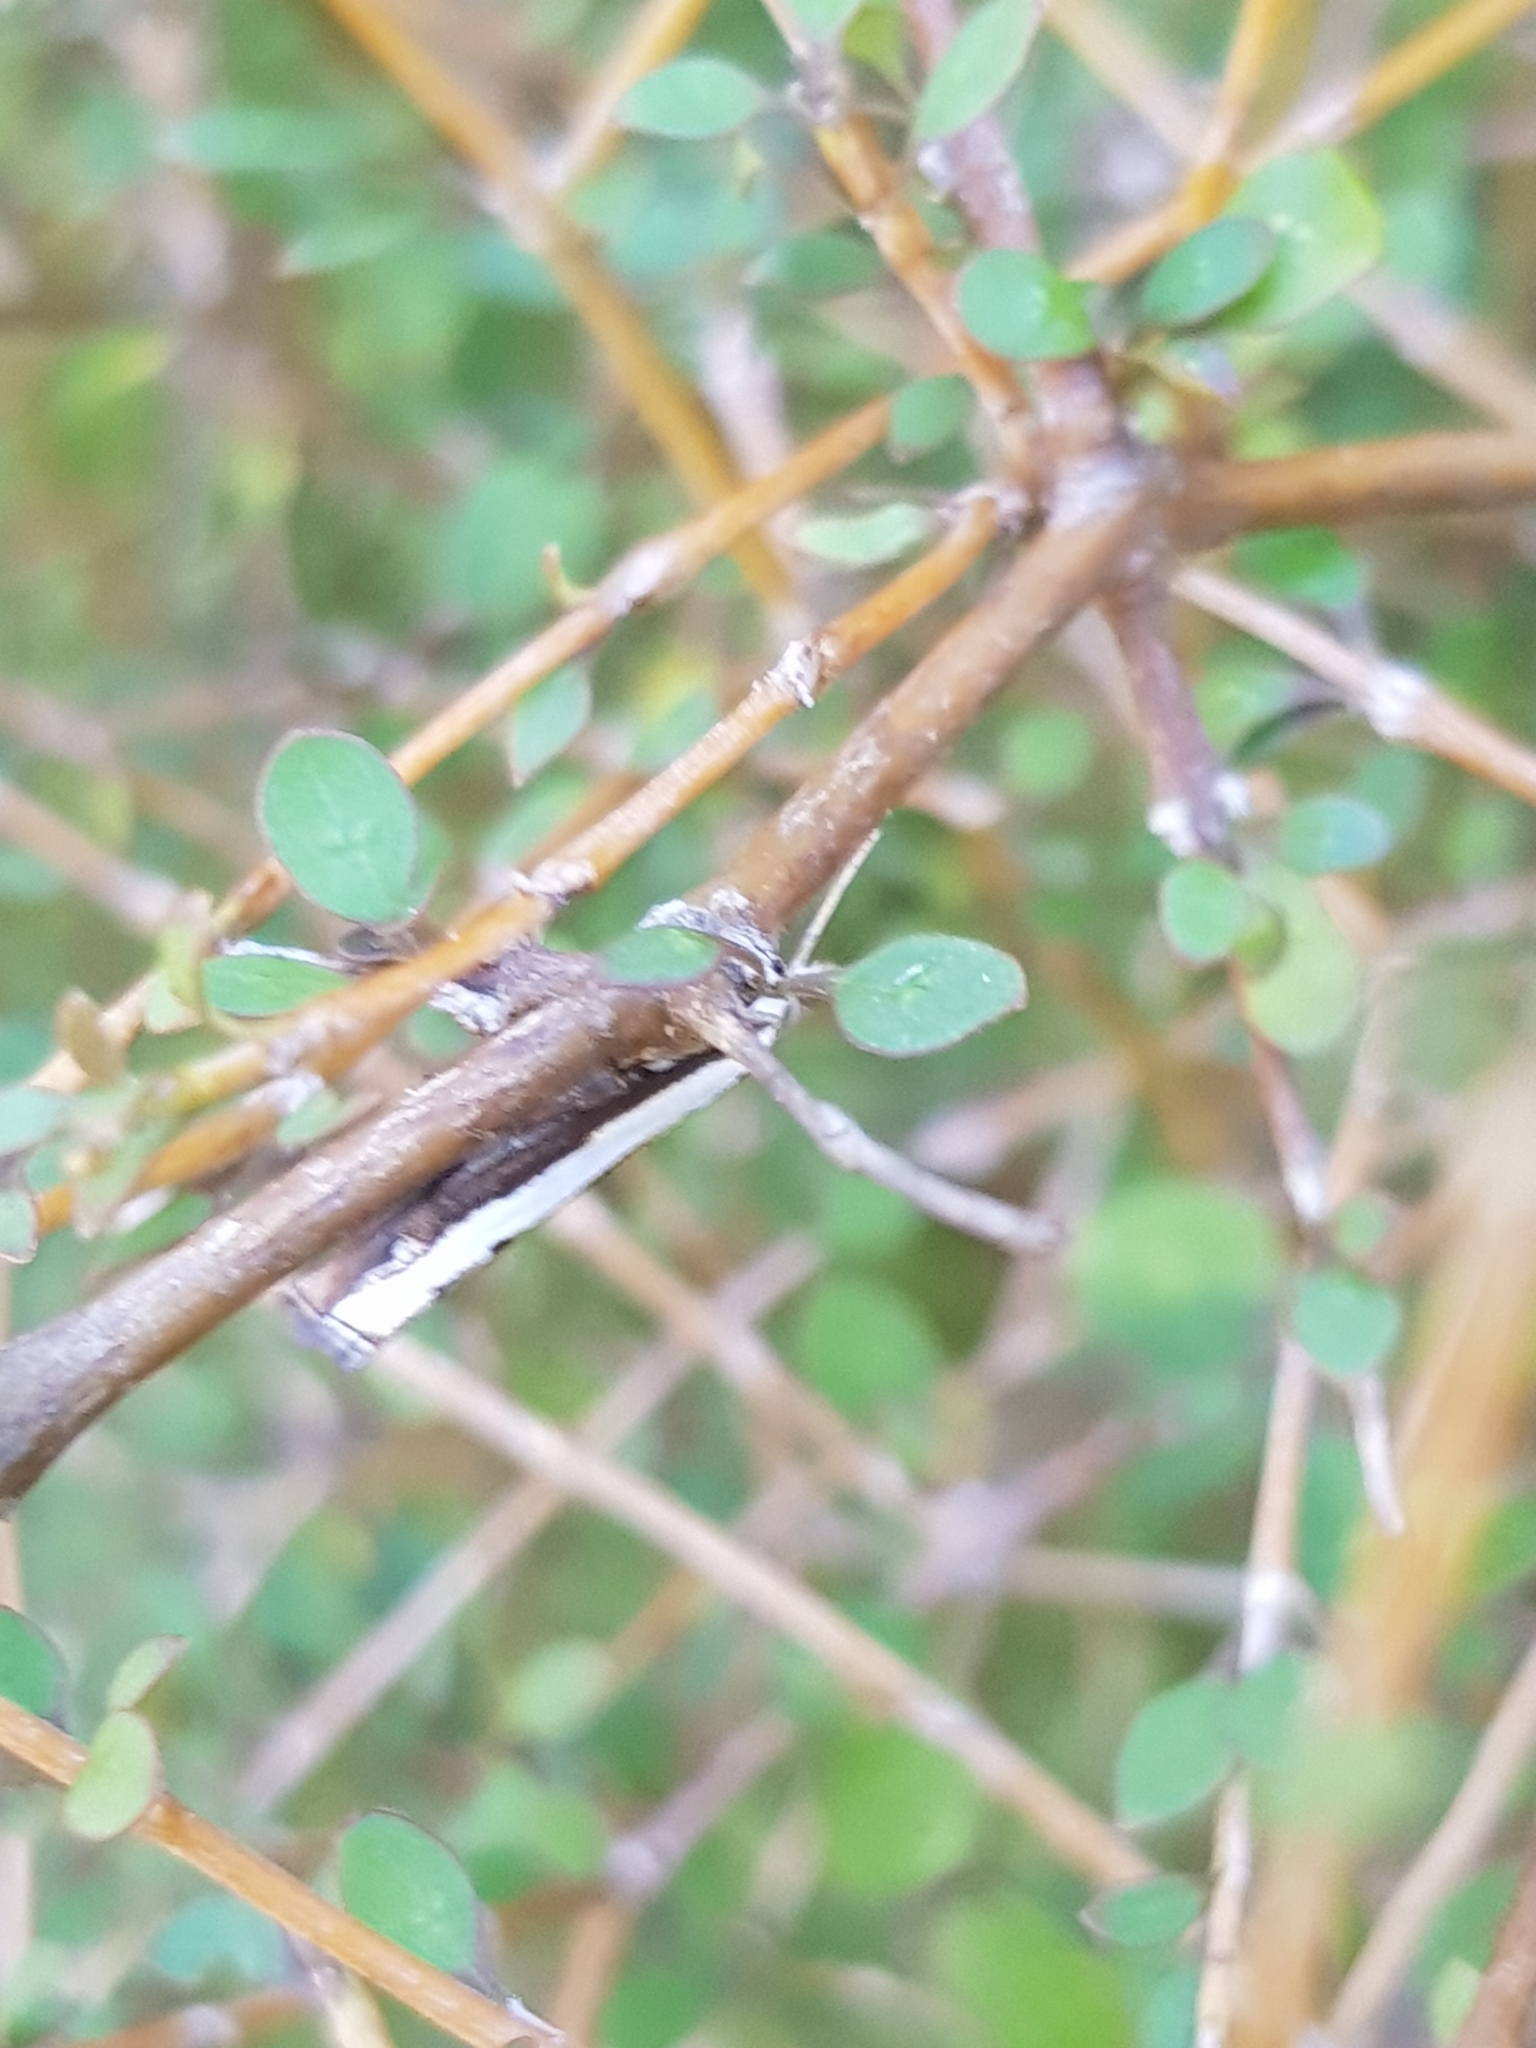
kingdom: Animalia
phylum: Arthropoda
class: Insecta
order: Lepidoptera
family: Crambidae
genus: Orocrambus
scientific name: Orocrambus flexuosellus
